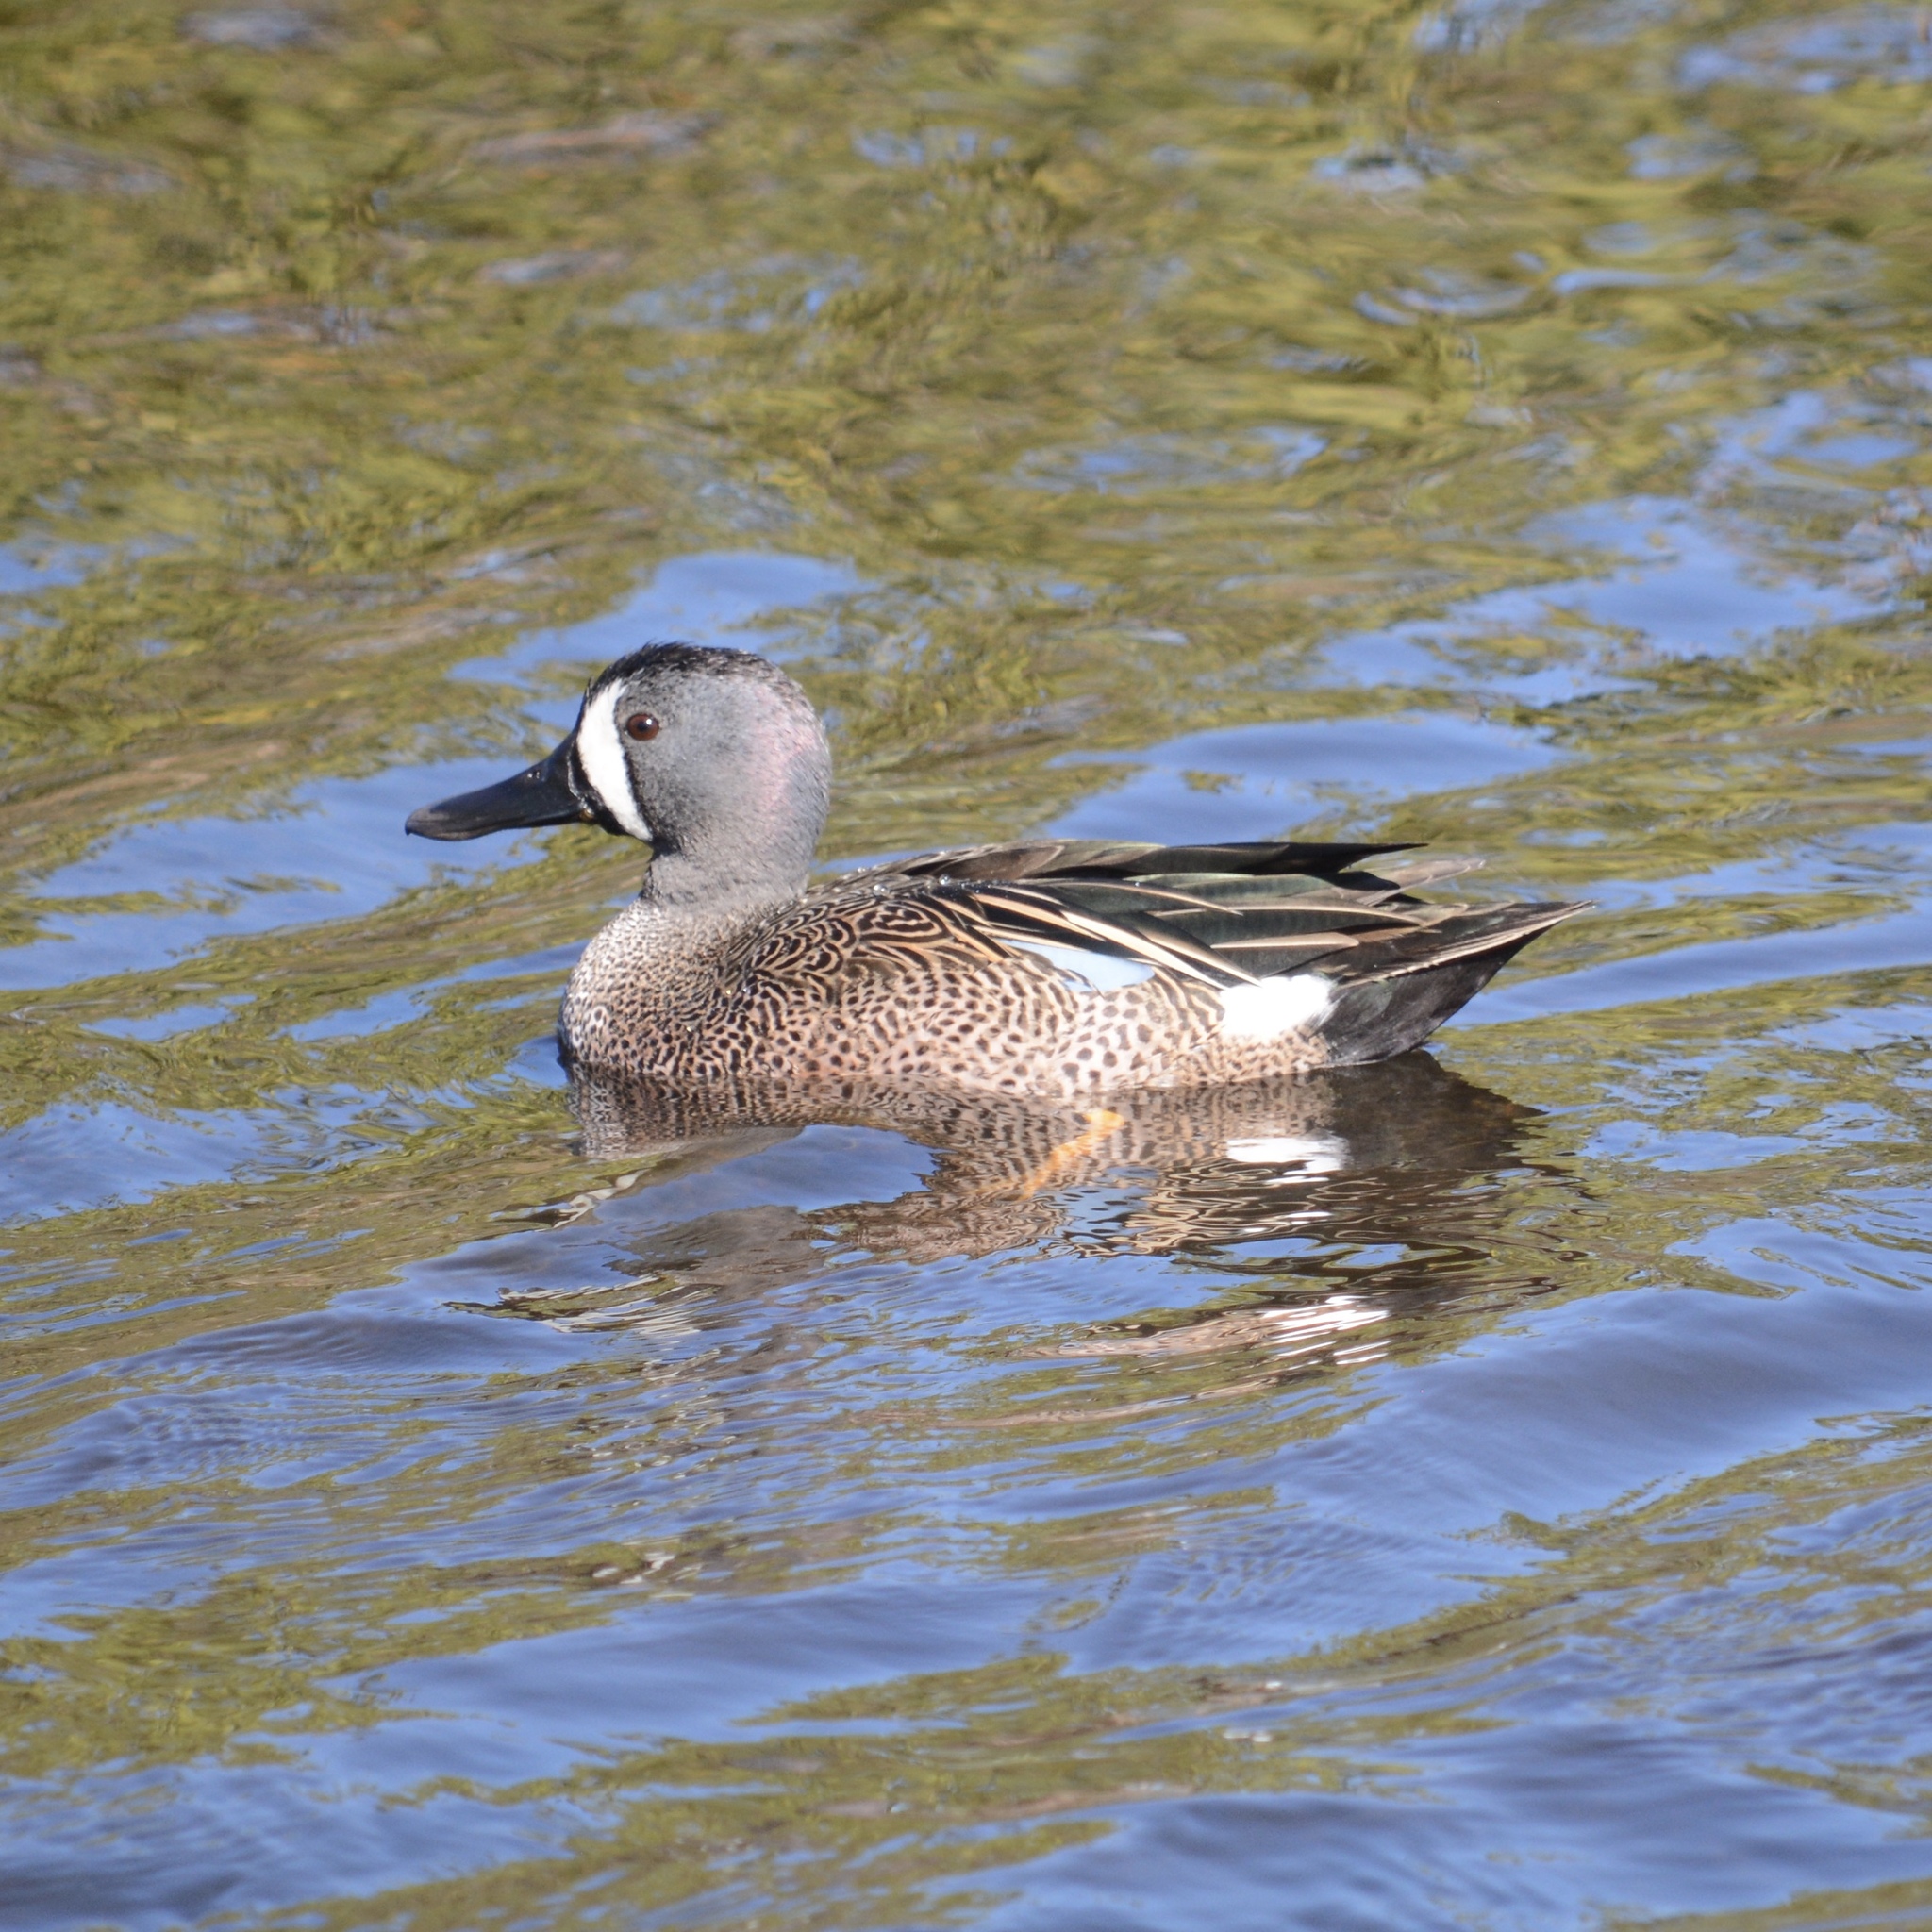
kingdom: Animalia
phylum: Chordata
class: Aves
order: Anseriformes
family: Anatidae
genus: Spatula
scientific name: Spatula discors
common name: Blue-winged teal
